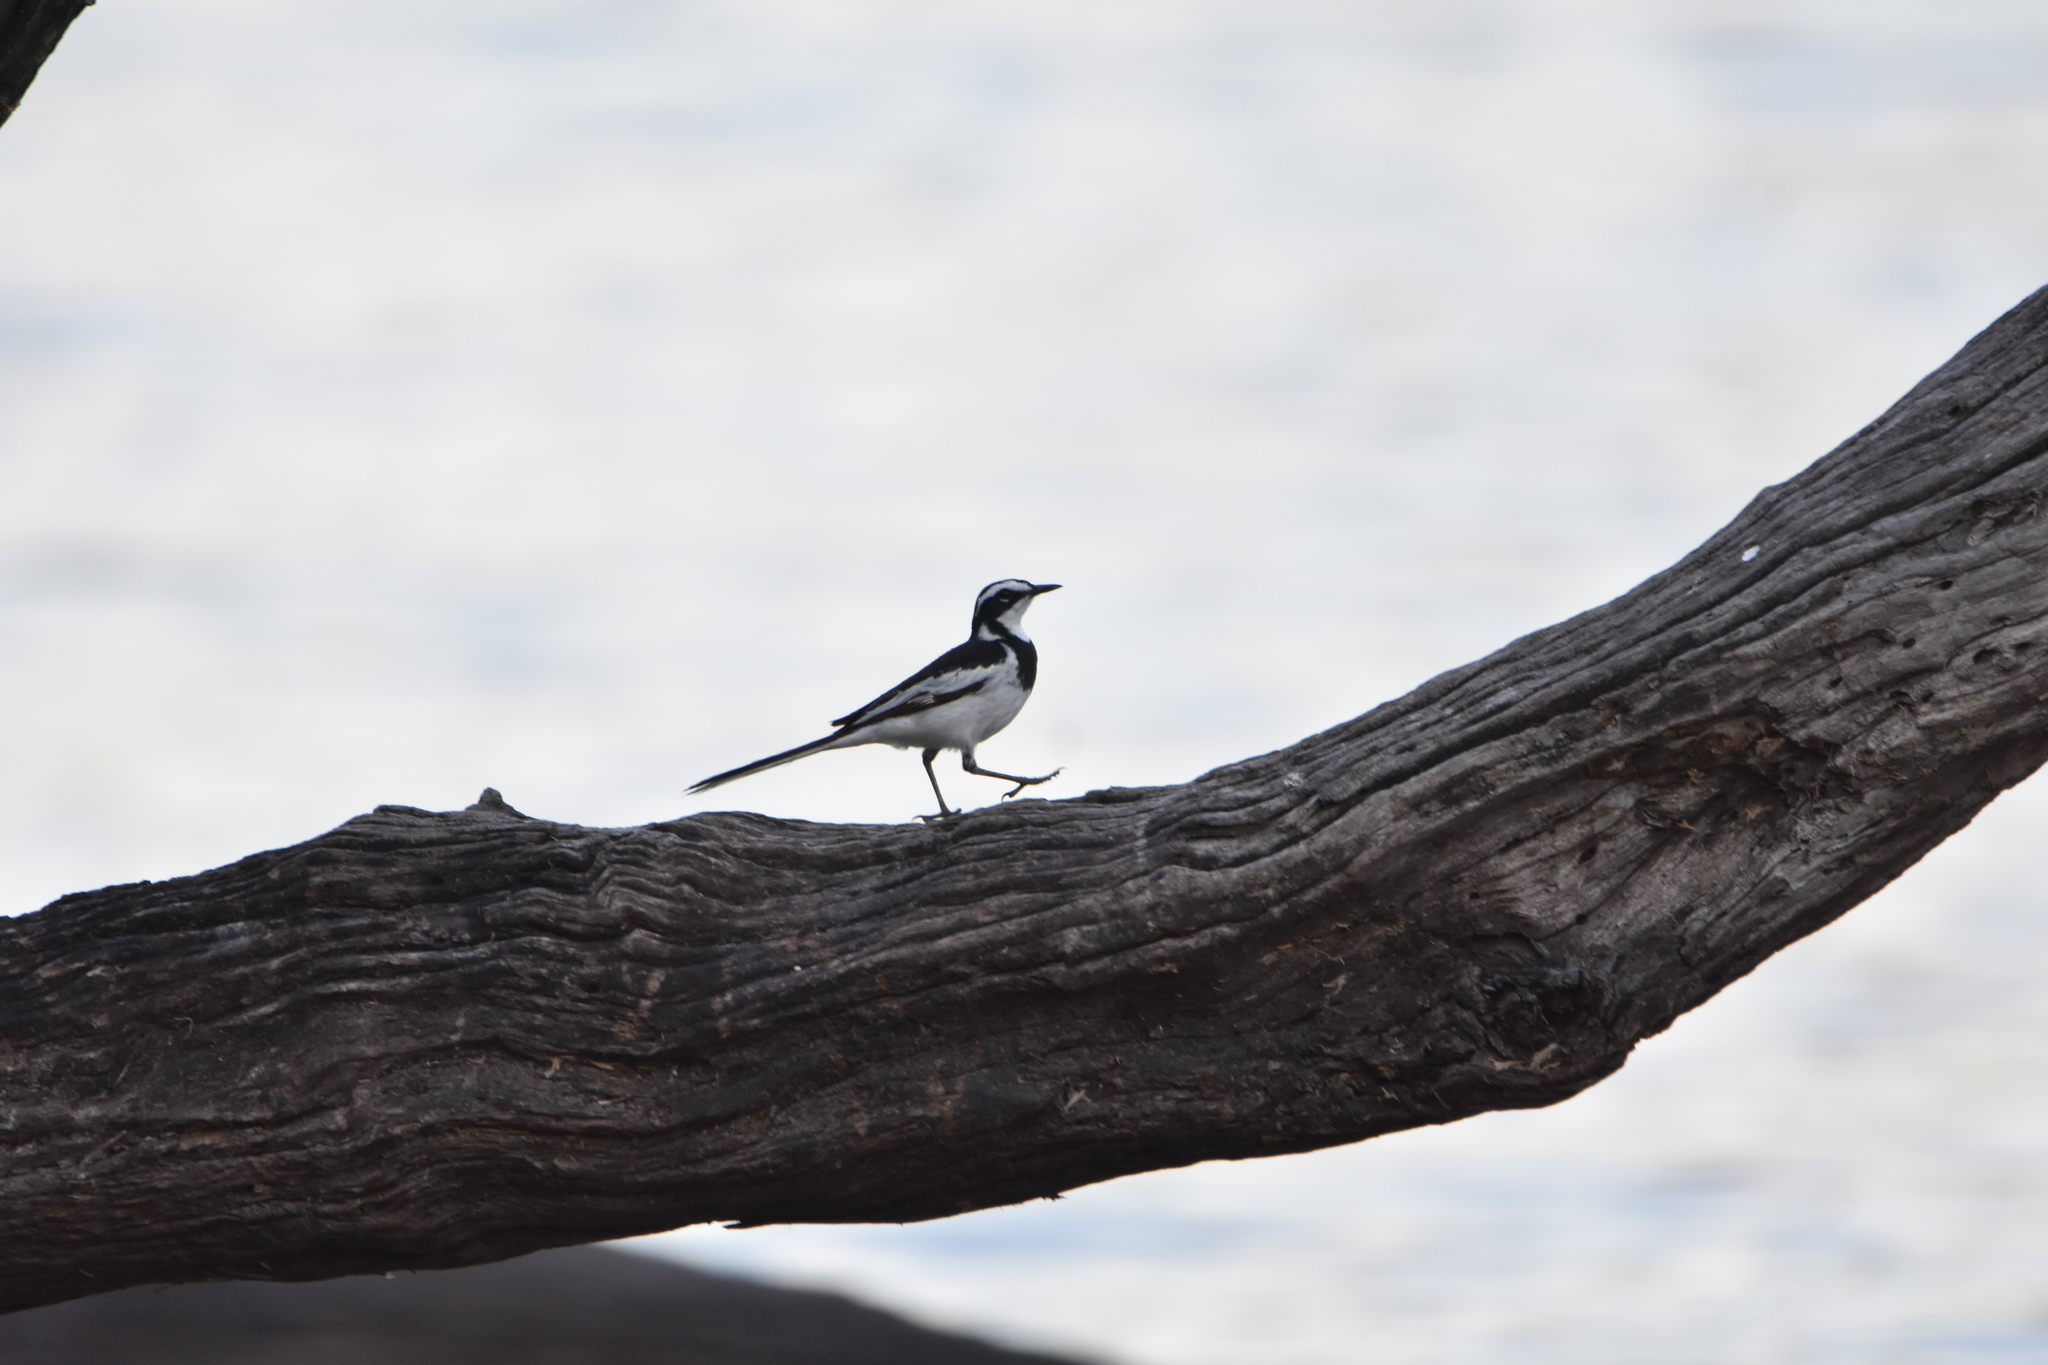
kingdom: Animalia
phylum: Chordata
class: Aves
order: Passeriformes
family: Motacillidae
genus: Motacilla
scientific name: Motacilla aguimp
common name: African pied wagtail
